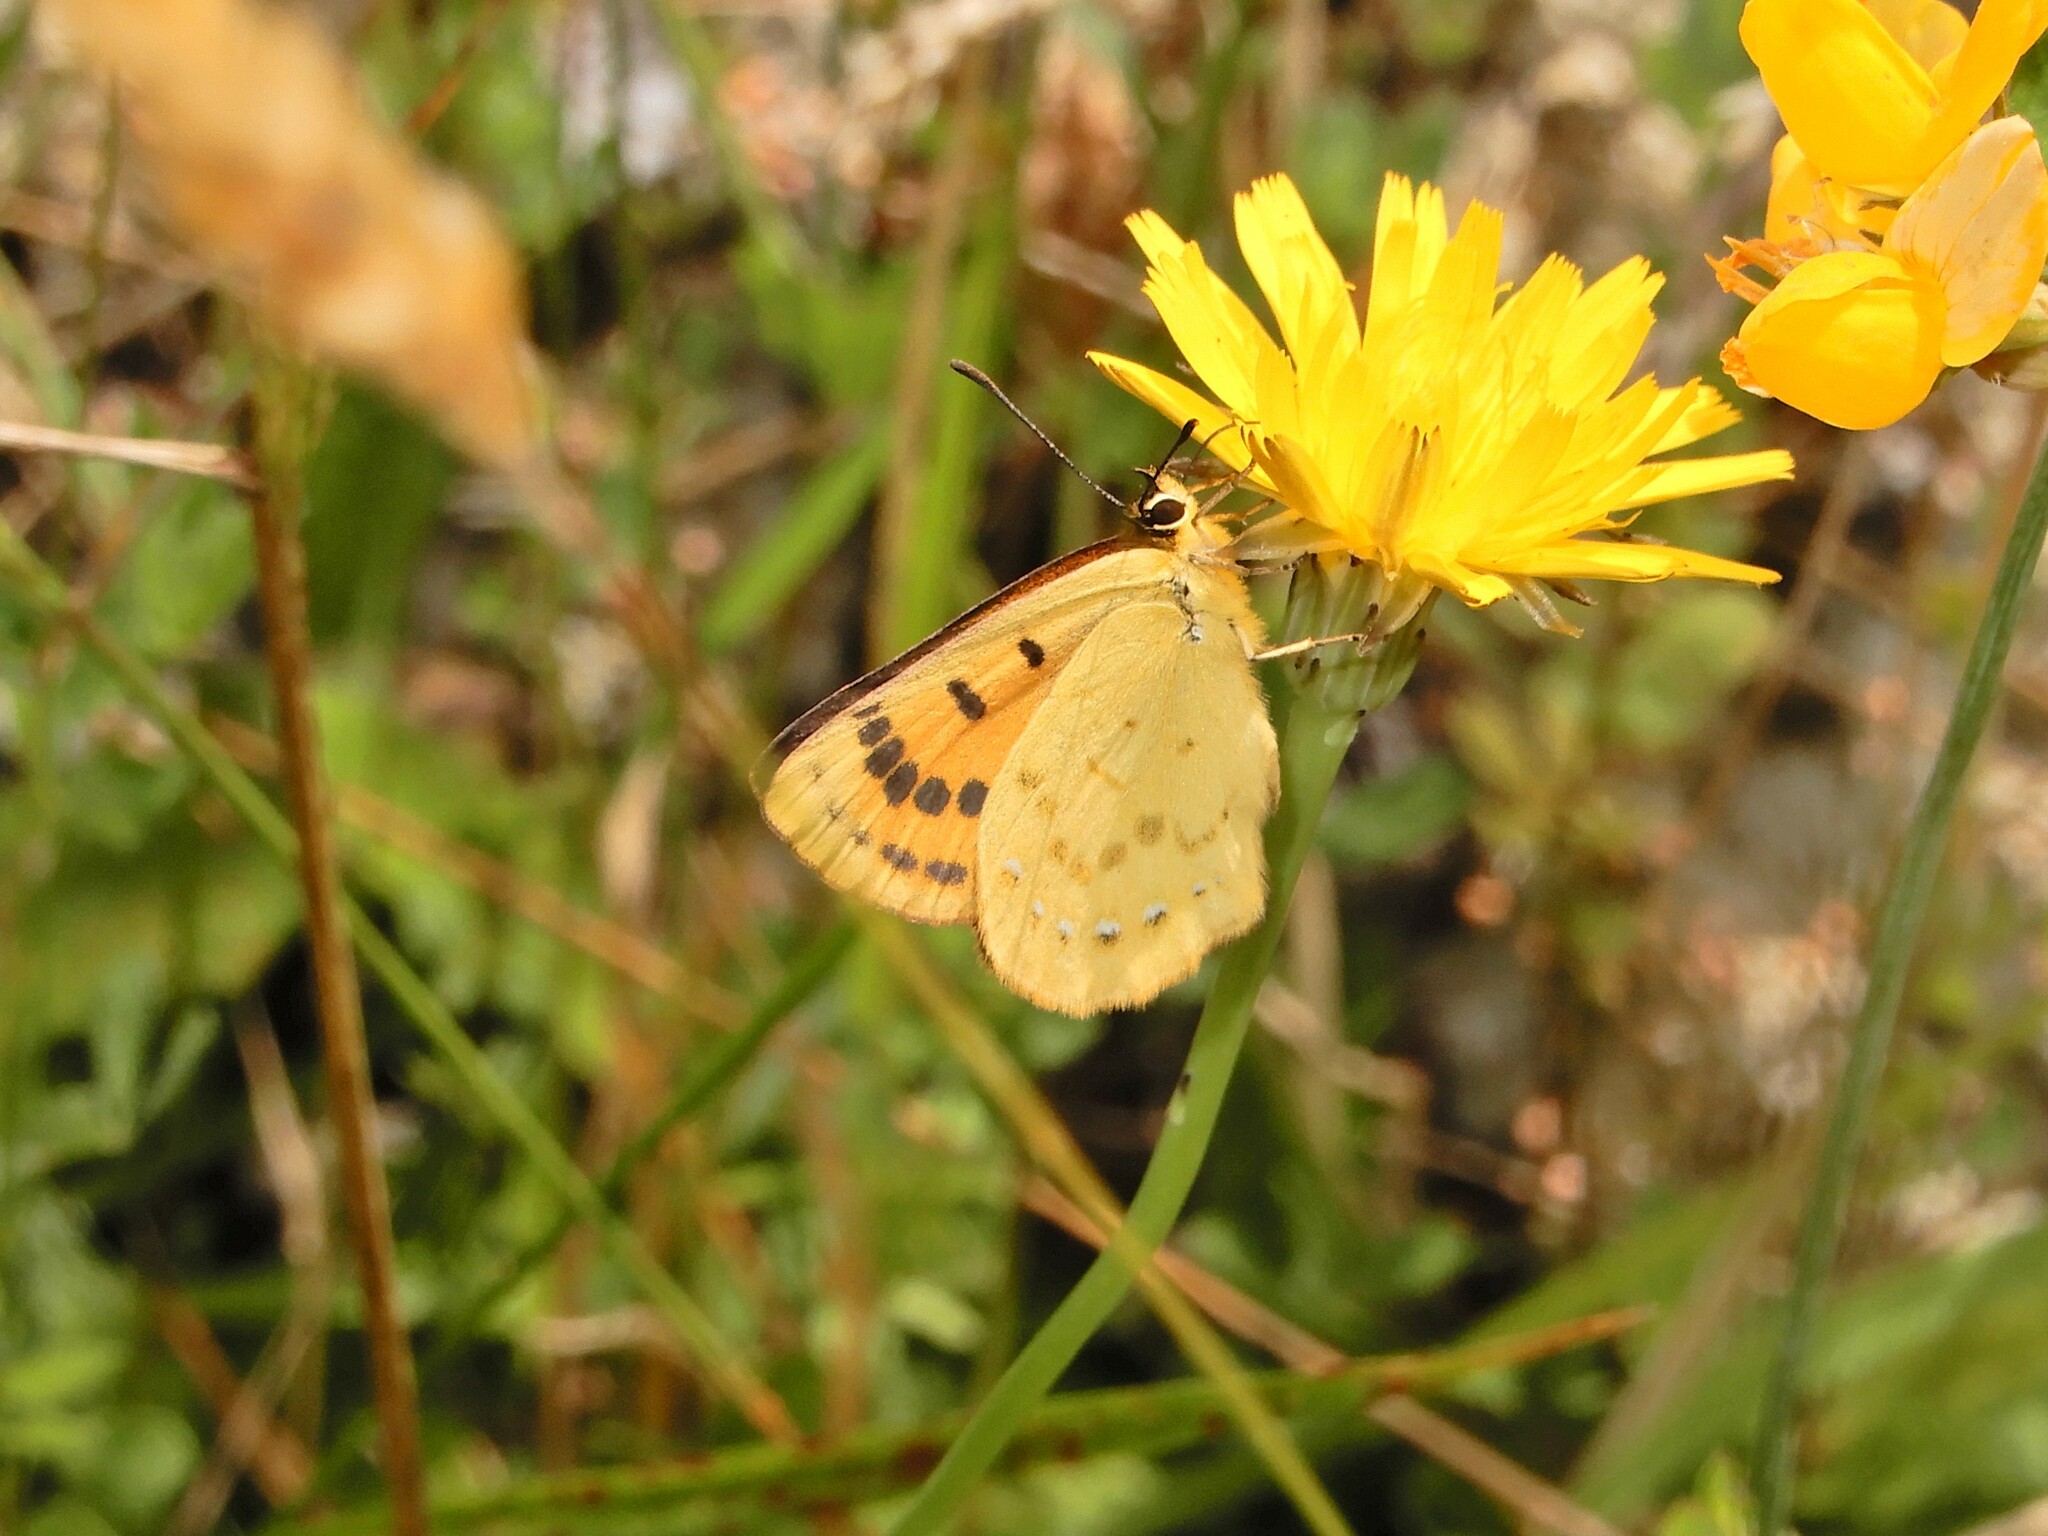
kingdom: Animalia
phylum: Arthropoda
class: Insecta
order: Lepidoptera
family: Lycaenidae
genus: Lycaena
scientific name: Lycaena salustius
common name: North island coastal copper
